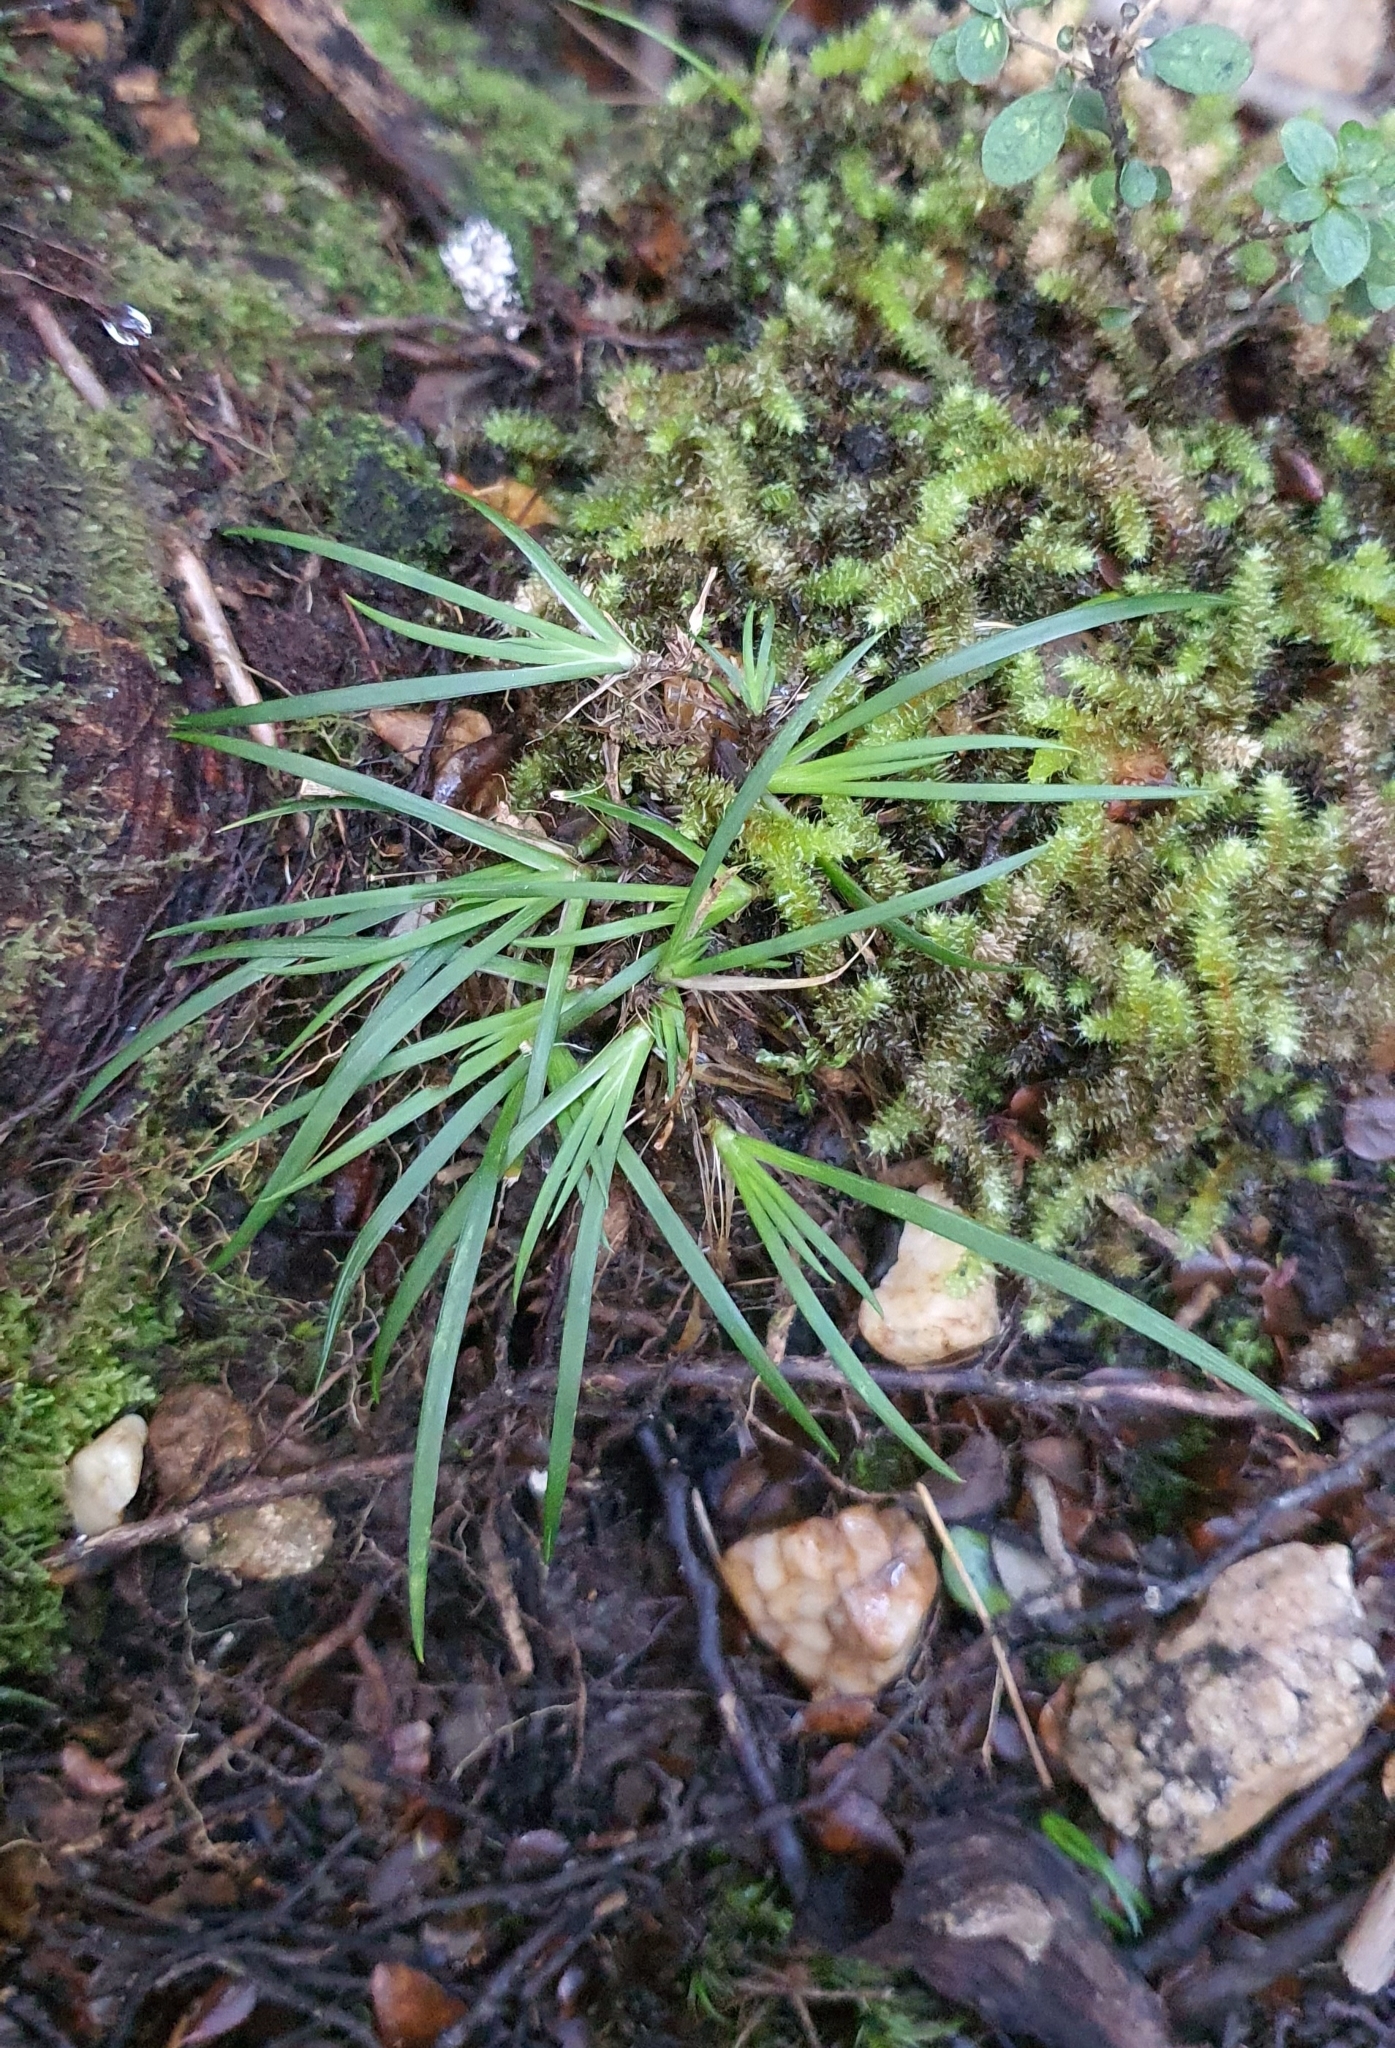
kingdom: Plantae
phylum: Tracheophyta
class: Liliopsida
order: Asparagales
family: Iridaceae
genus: Libertia
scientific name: Libertia micrantha
